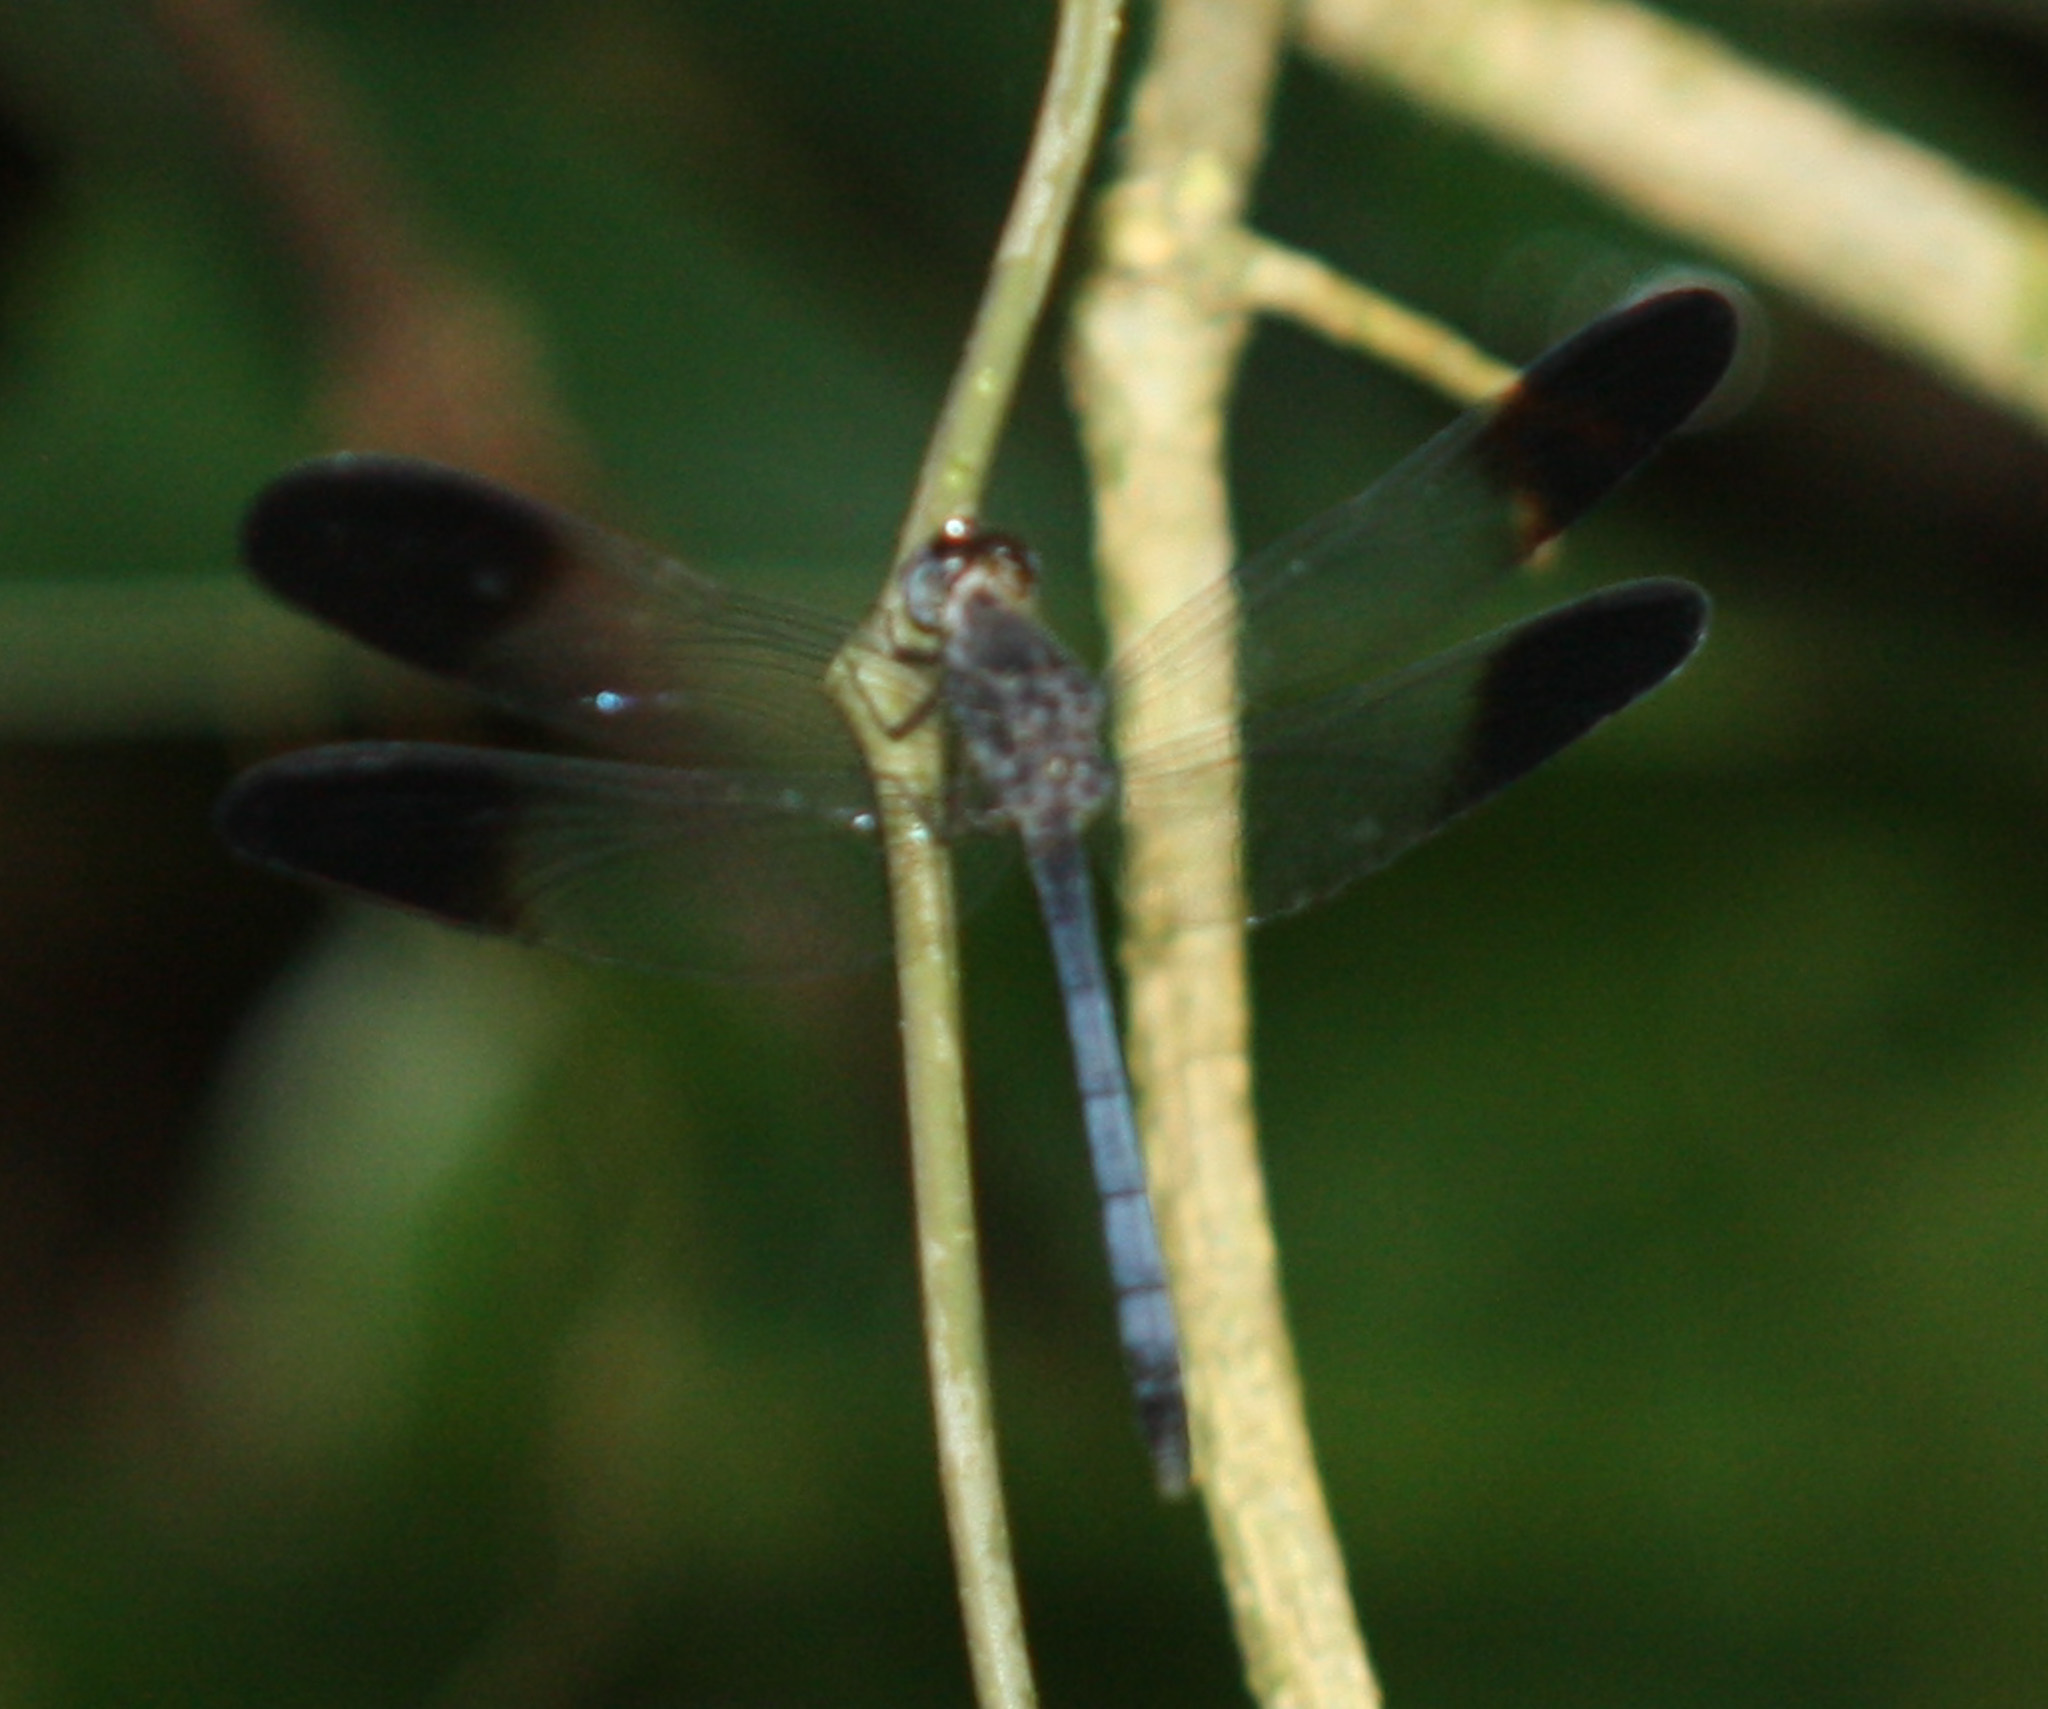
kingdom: Animalia
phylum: Arthropoda
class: Insecta
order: Odonata
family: Libellulidae
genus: Uracis
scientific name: Uracis fastigiata
